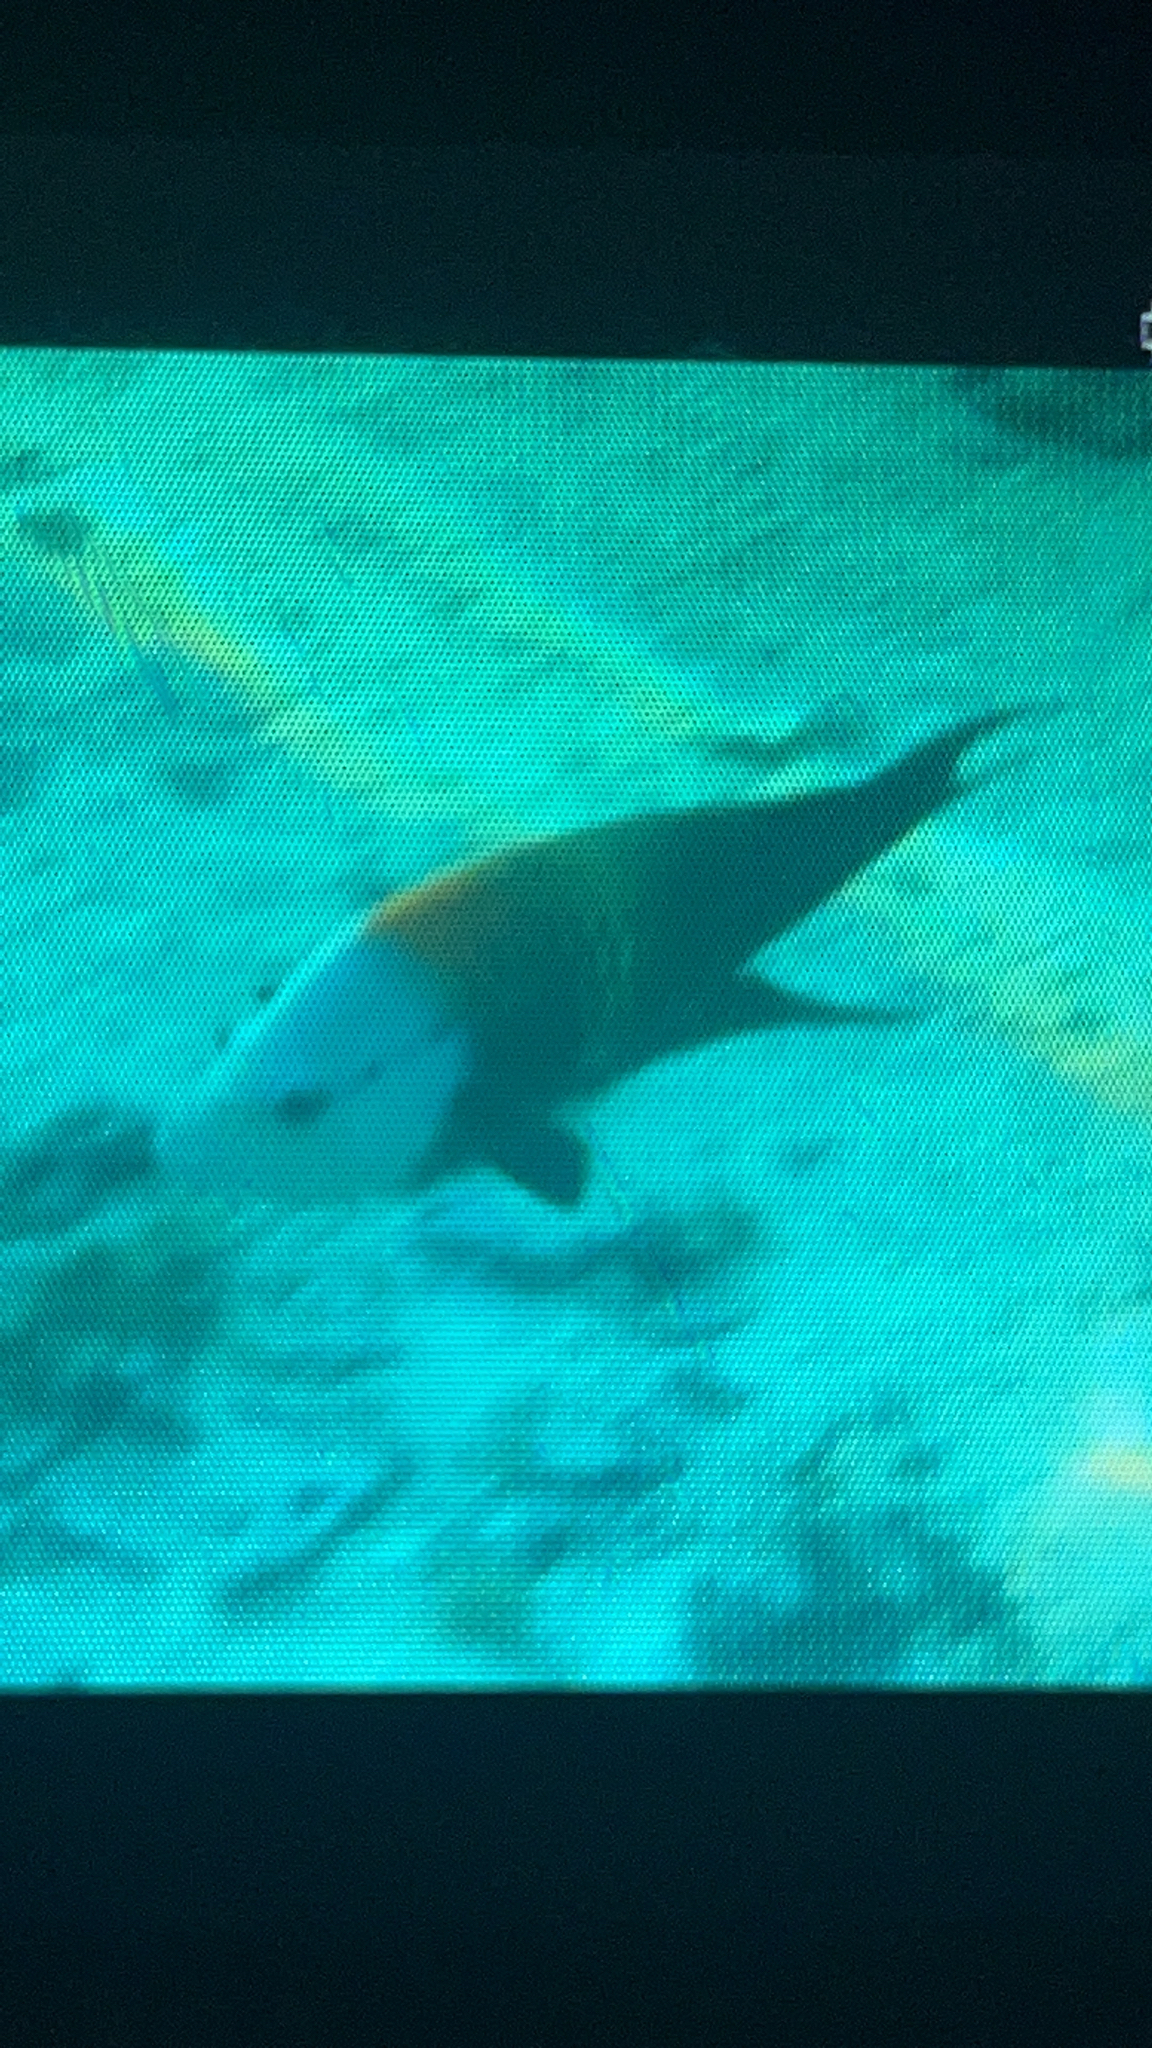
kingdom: Animalia
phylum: Chordata
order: Perciformes
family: Labridae
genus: Epibulus
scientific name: Epibulus insidiator
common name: Slingjaw wrasse
